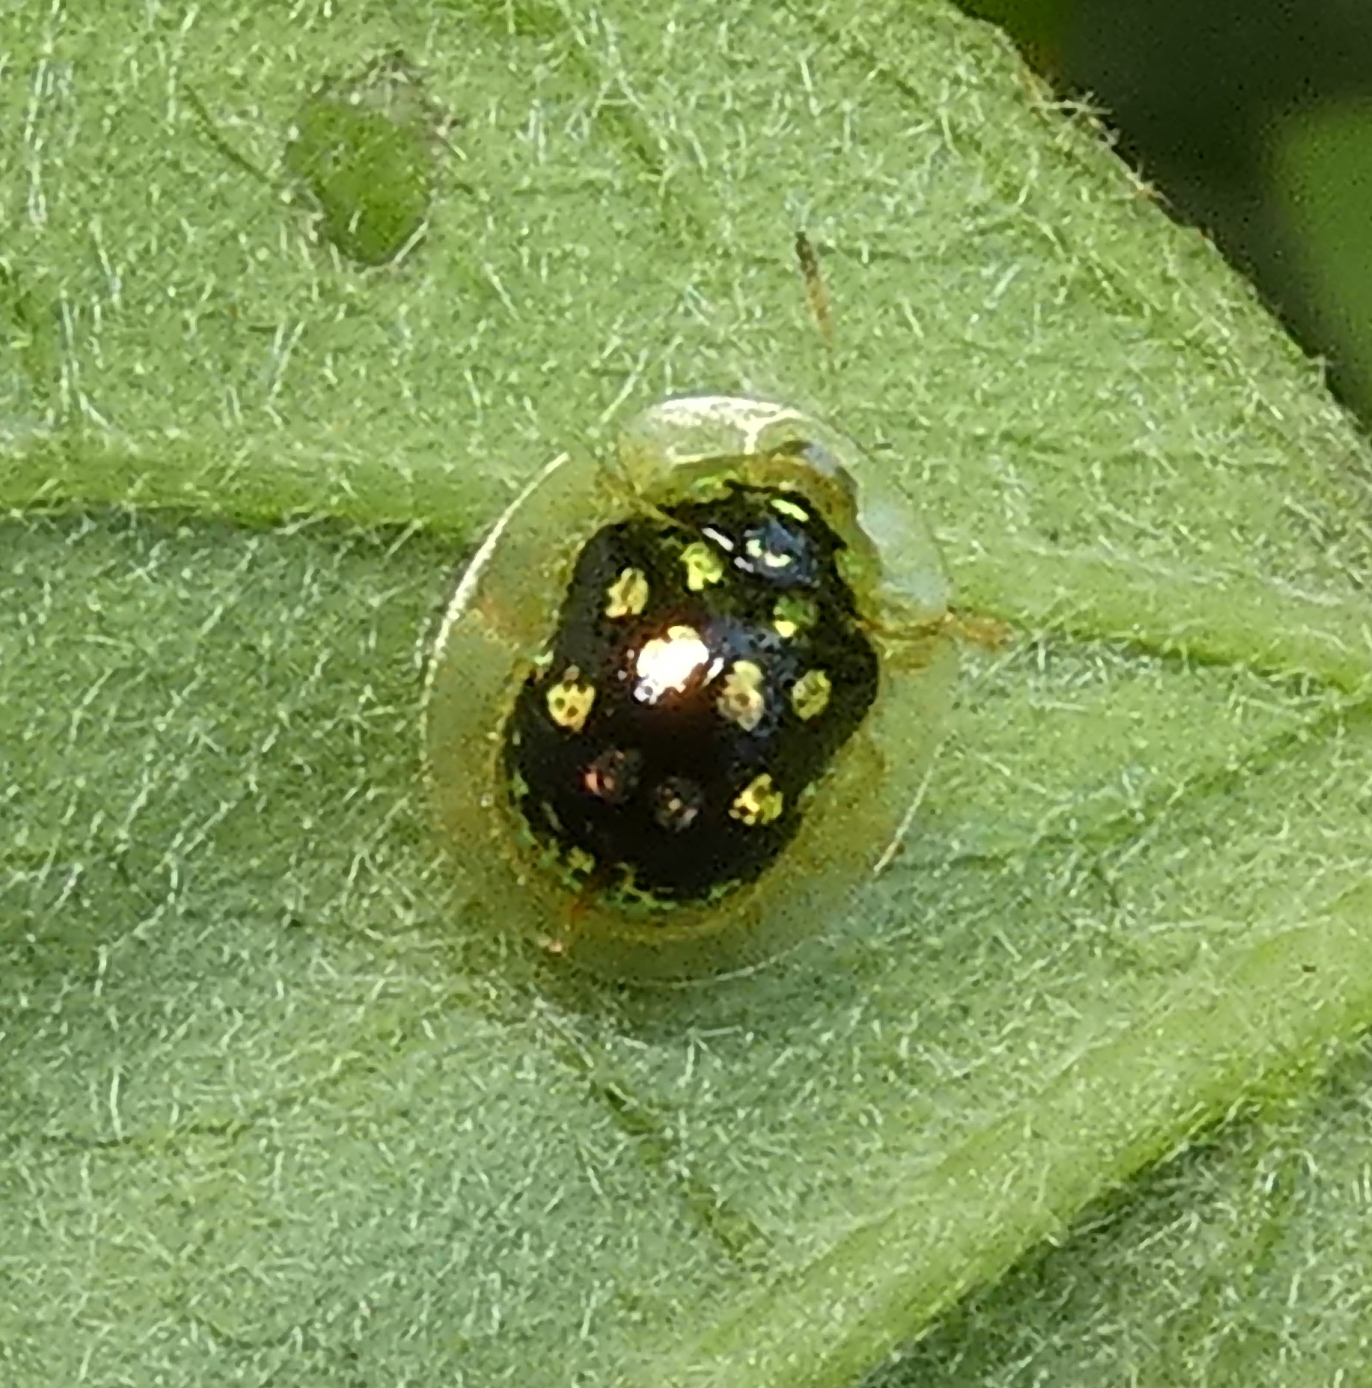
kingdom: Animalia
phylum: Arthropoda
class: Insecta
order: Coleoptera
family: Chrysomelidae
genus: Plagiometriona
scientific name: Plagiometriona microcera
